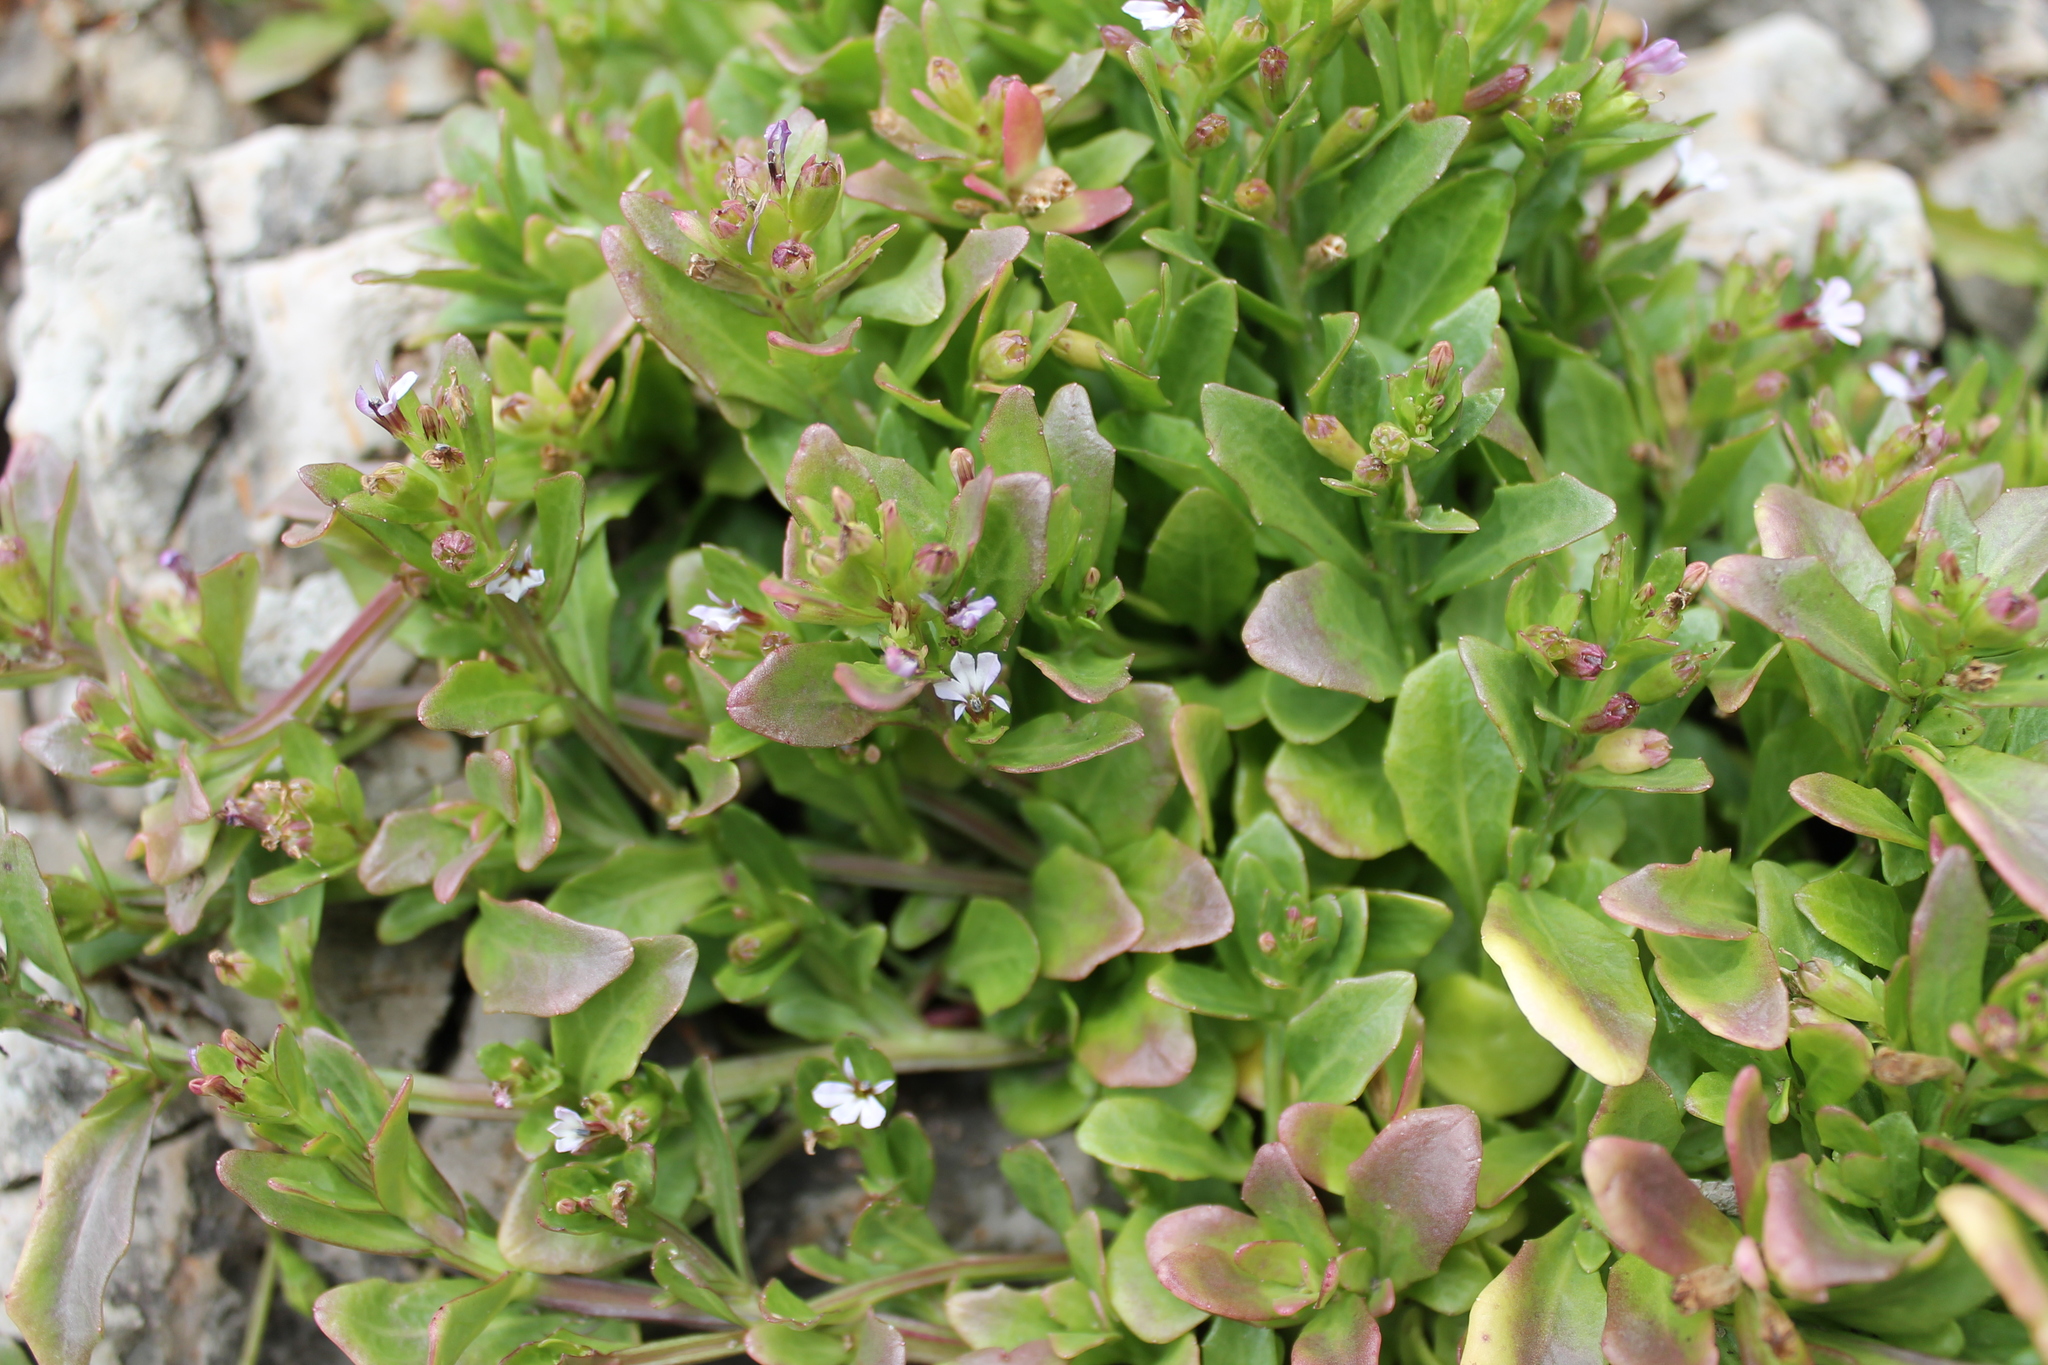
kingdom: Plantae
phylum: Tracheophyta
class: Magnoliopsida
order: Asterales
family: Campanulaceae
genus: Lobelia
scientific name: Lobelia anceps
